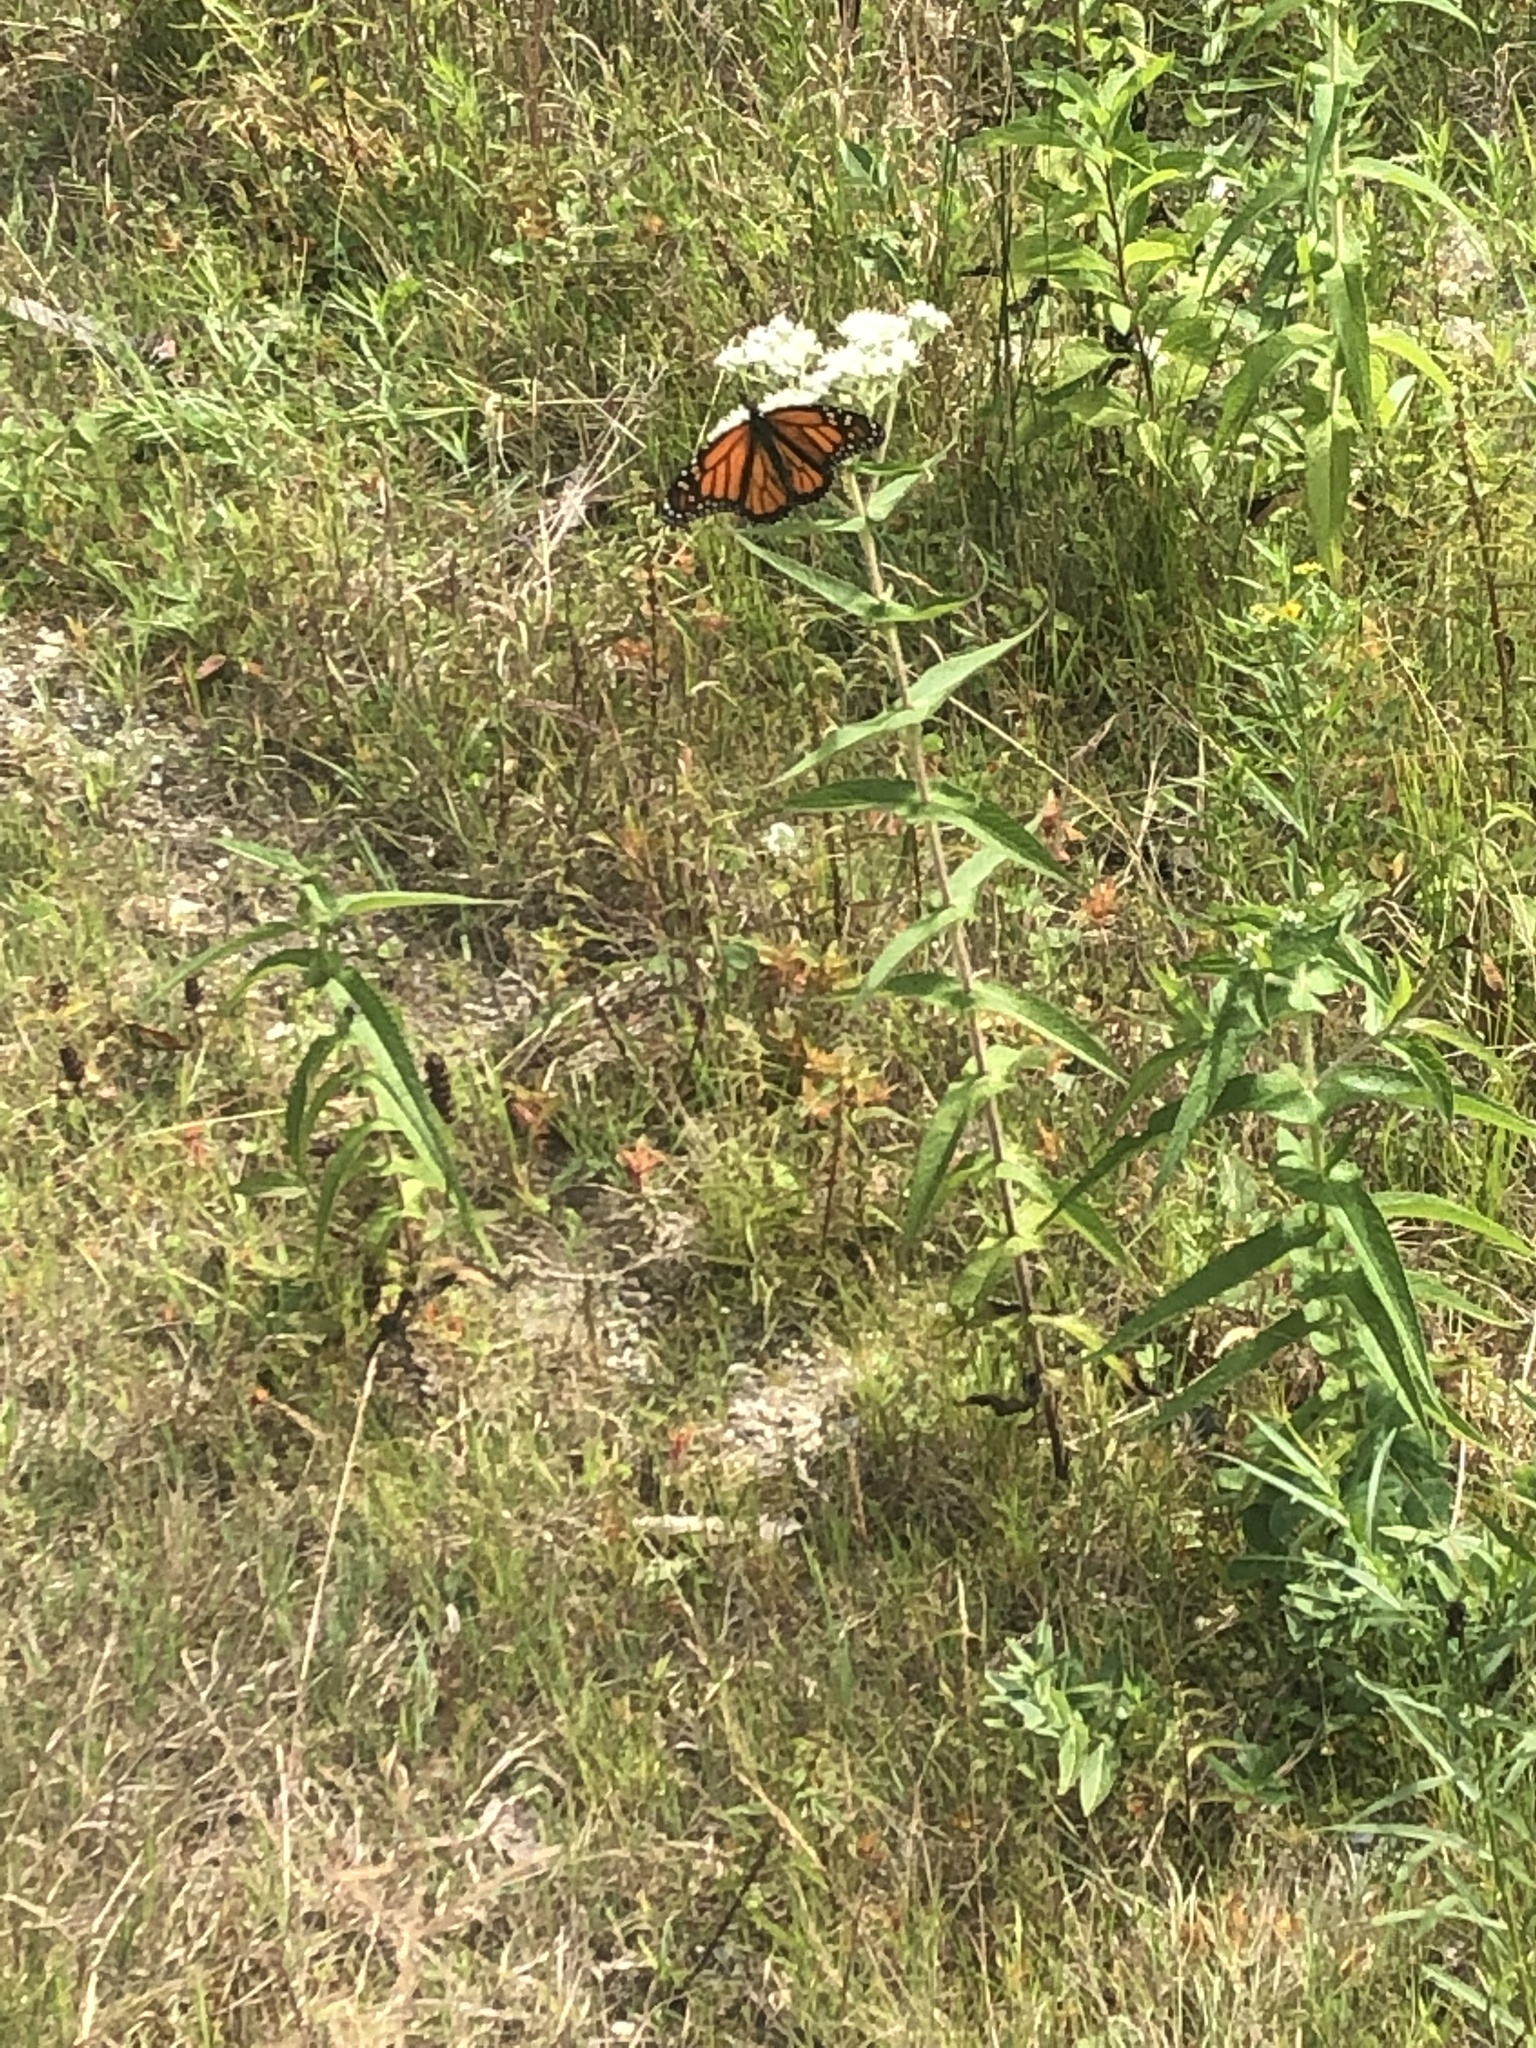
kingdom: Animalia
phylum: Arthropoda
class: Insecta
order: Lepidoptera
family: Nymphalidae
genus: Danaus
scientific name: Danaus plexippus
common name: Monarch
